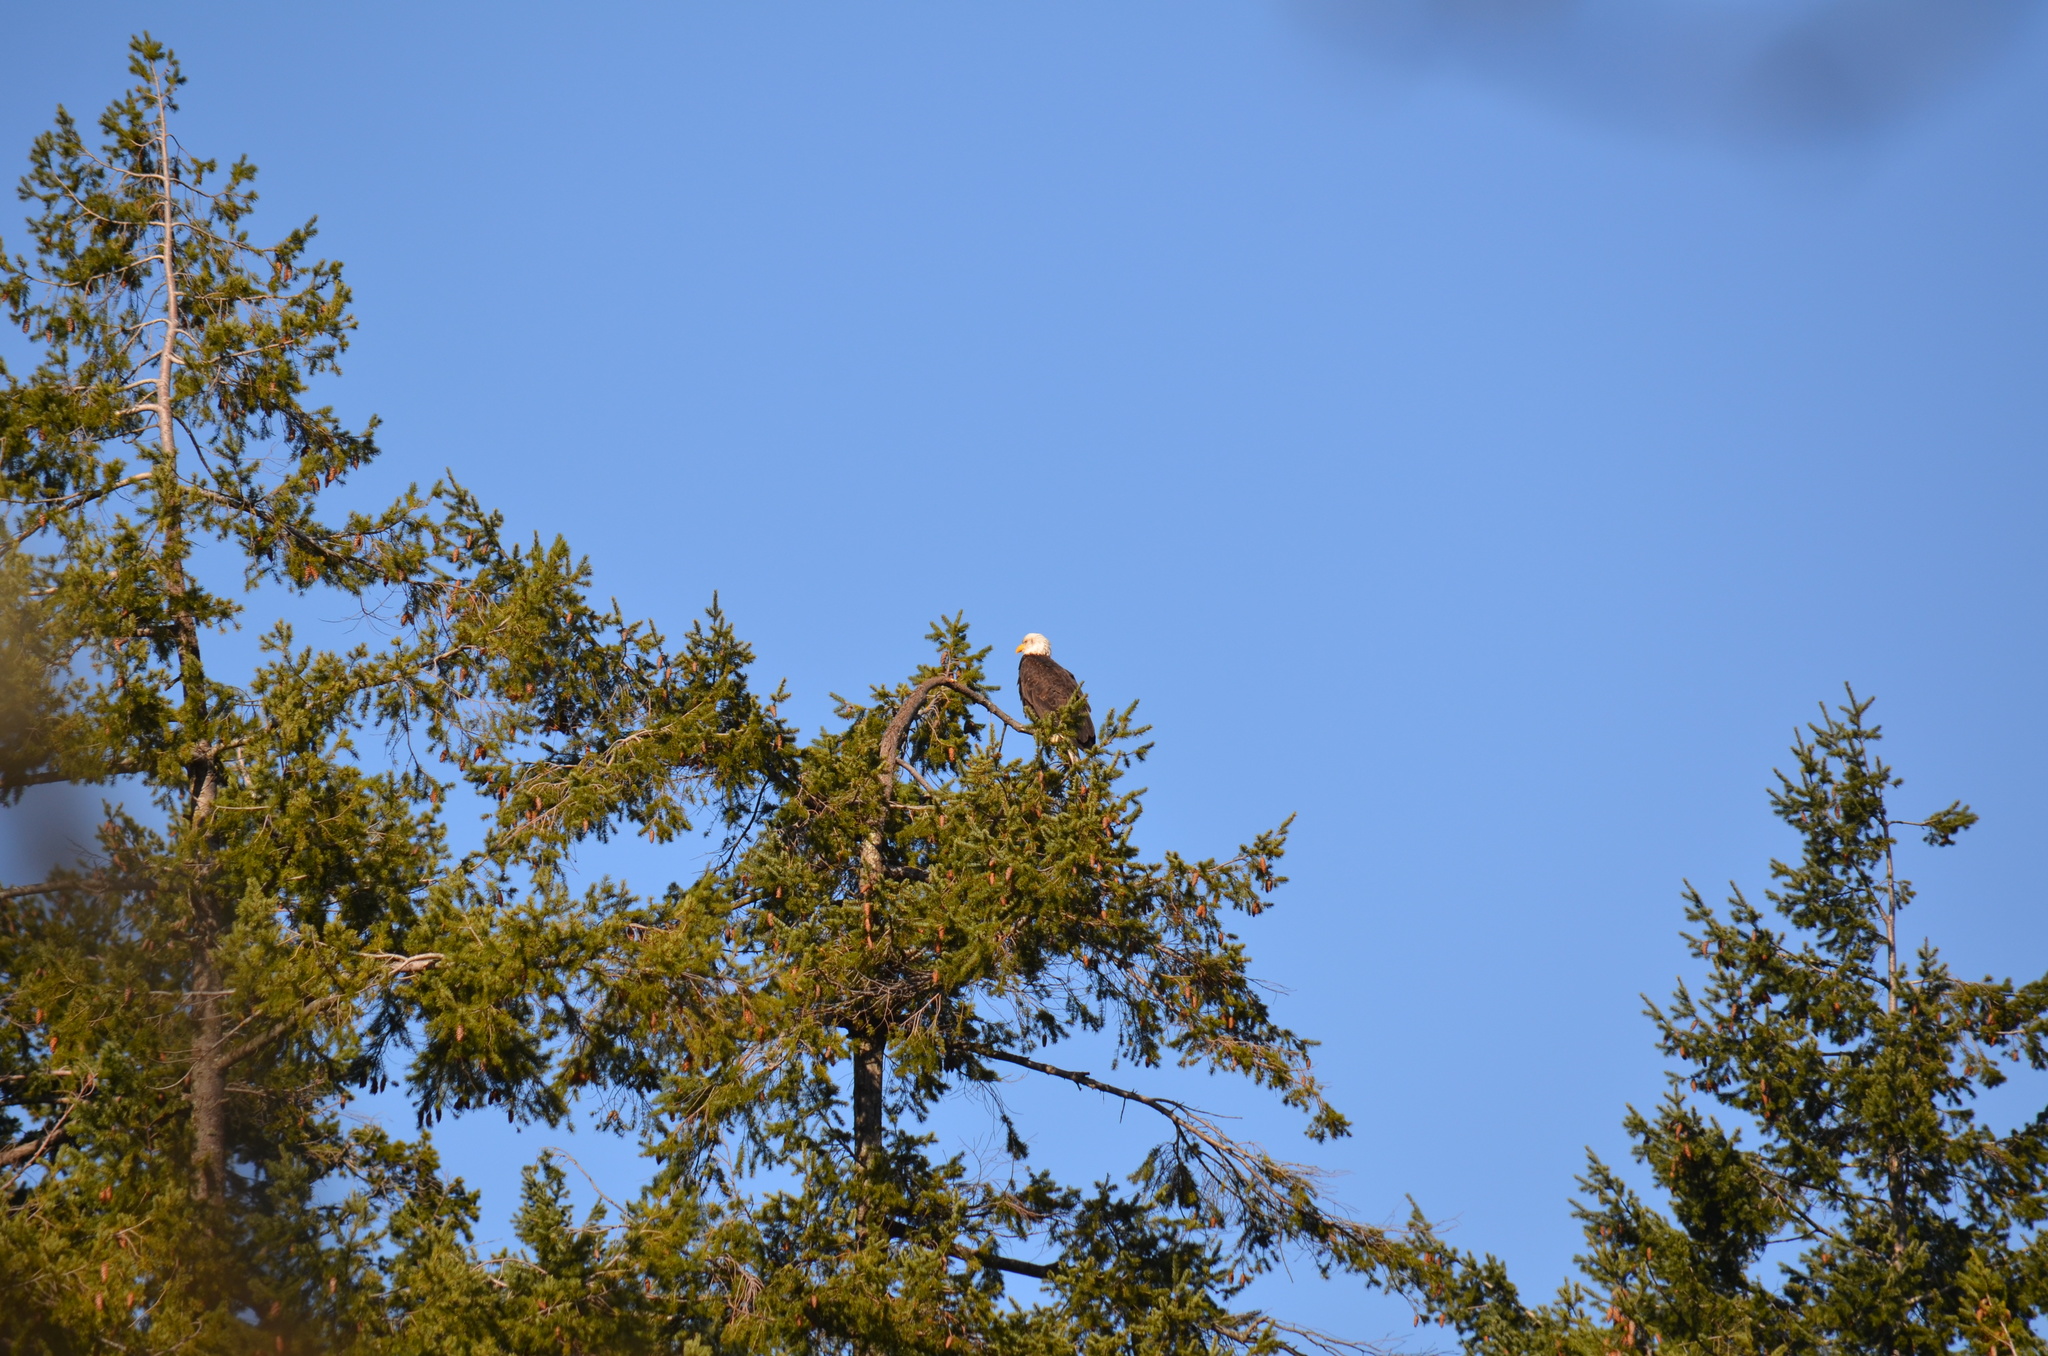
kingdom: Animalia
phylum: Chordata
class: Aves
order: Accipitriformes
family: Accipitridae
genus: Haliaeetus
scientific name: Haliaeetus leucocephalus
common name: Bald eagle
